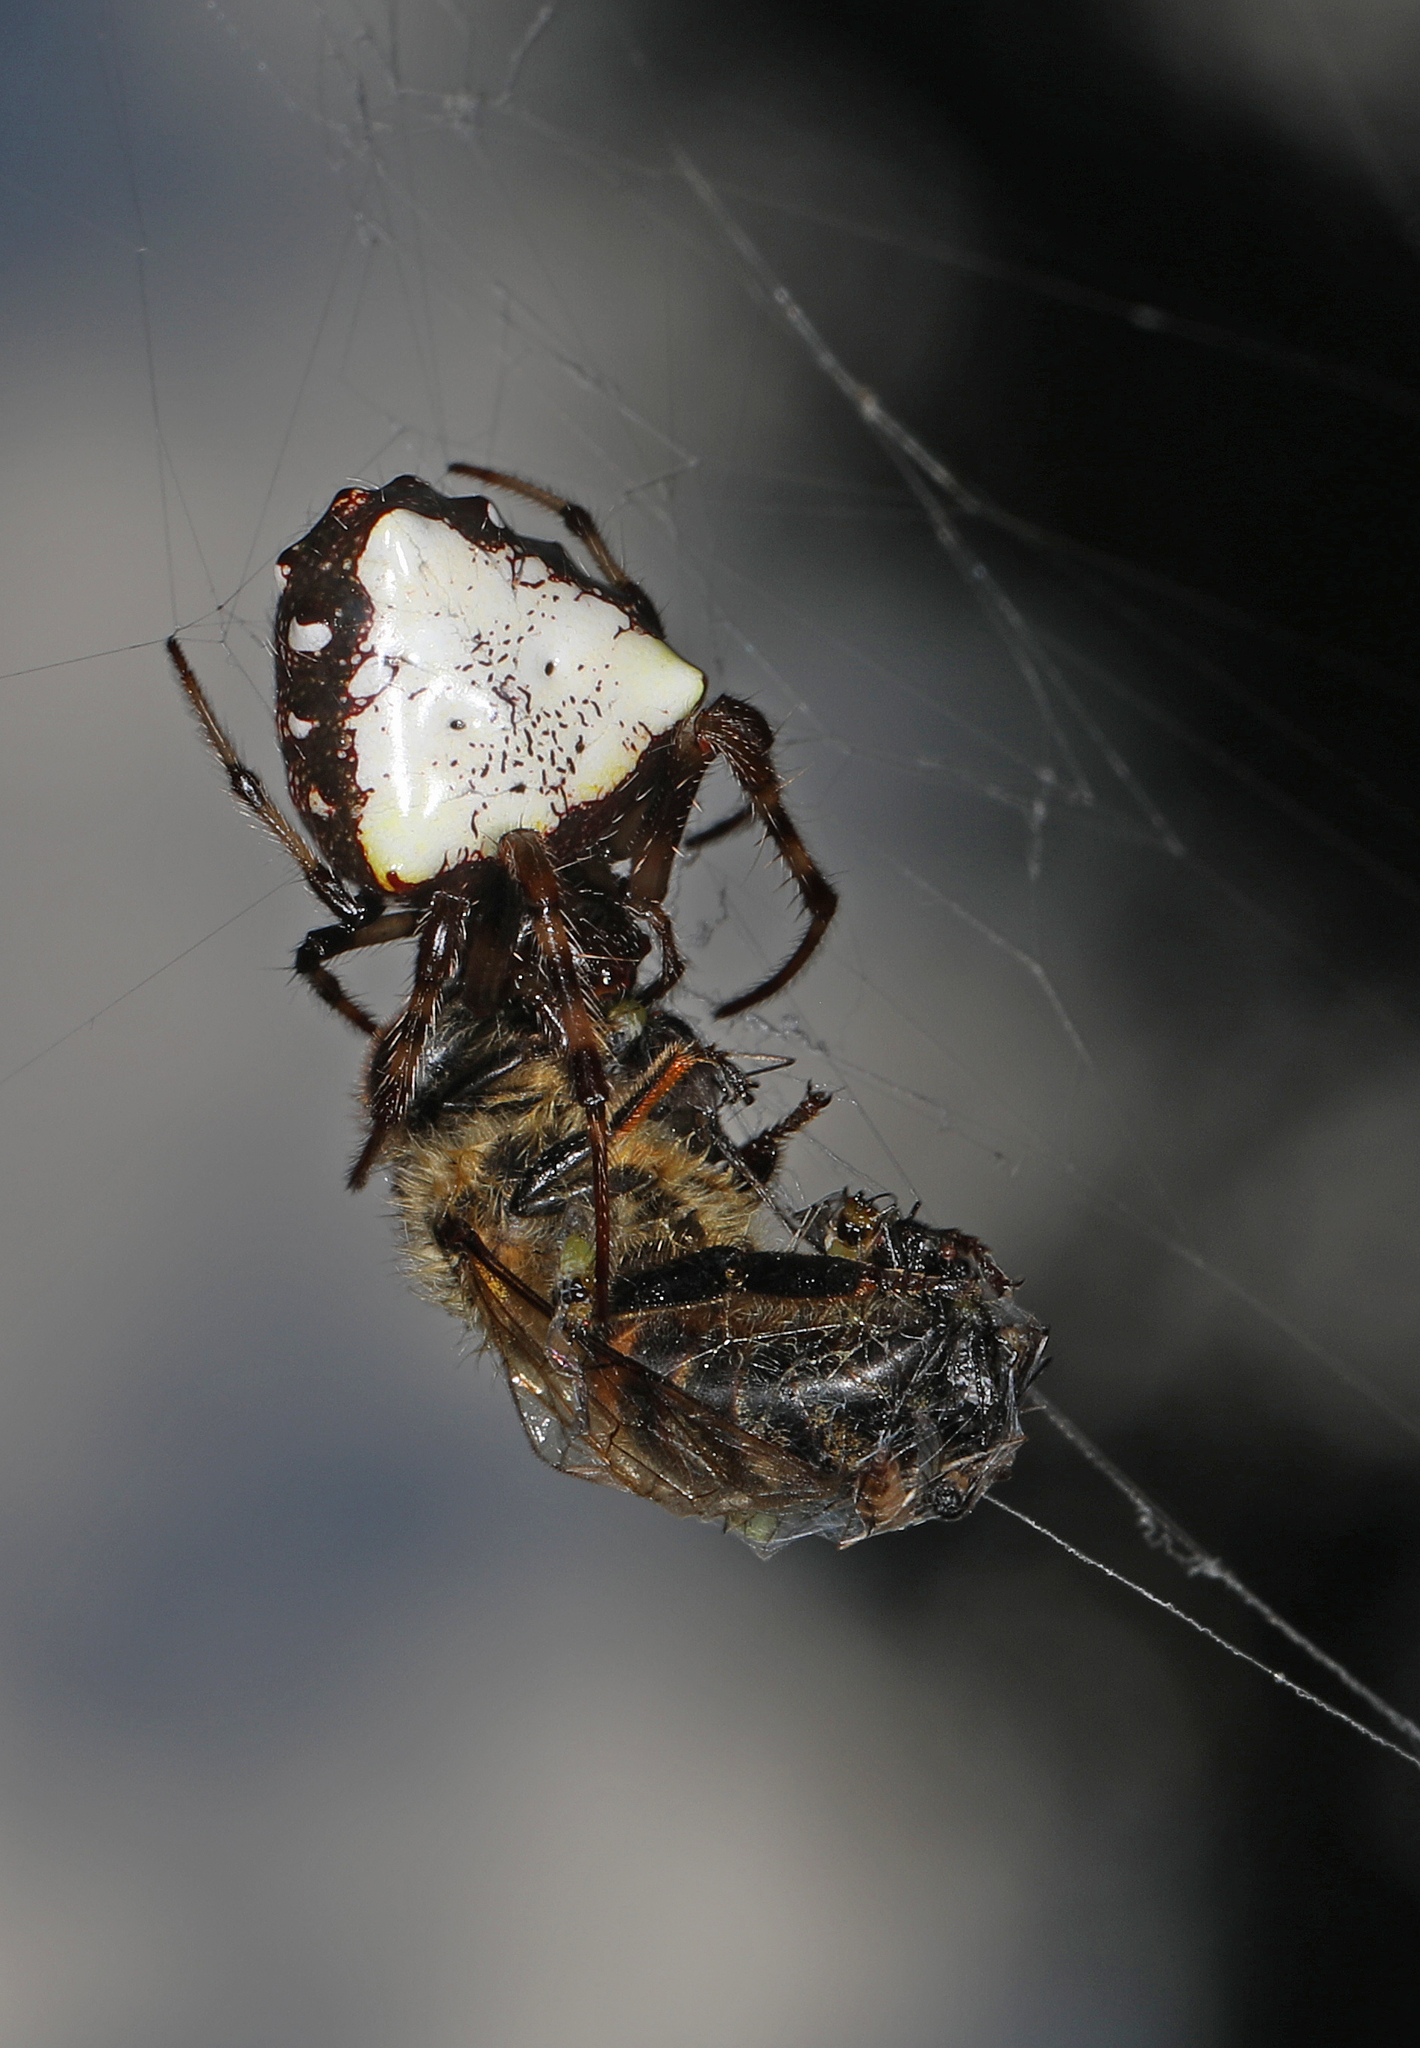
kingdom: Animalia
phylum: Arthropoda
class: Arachnida
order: Araneae
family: Araneidae
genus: Verrucosa
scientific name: Verrucosa arenata
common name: Orb weavers
